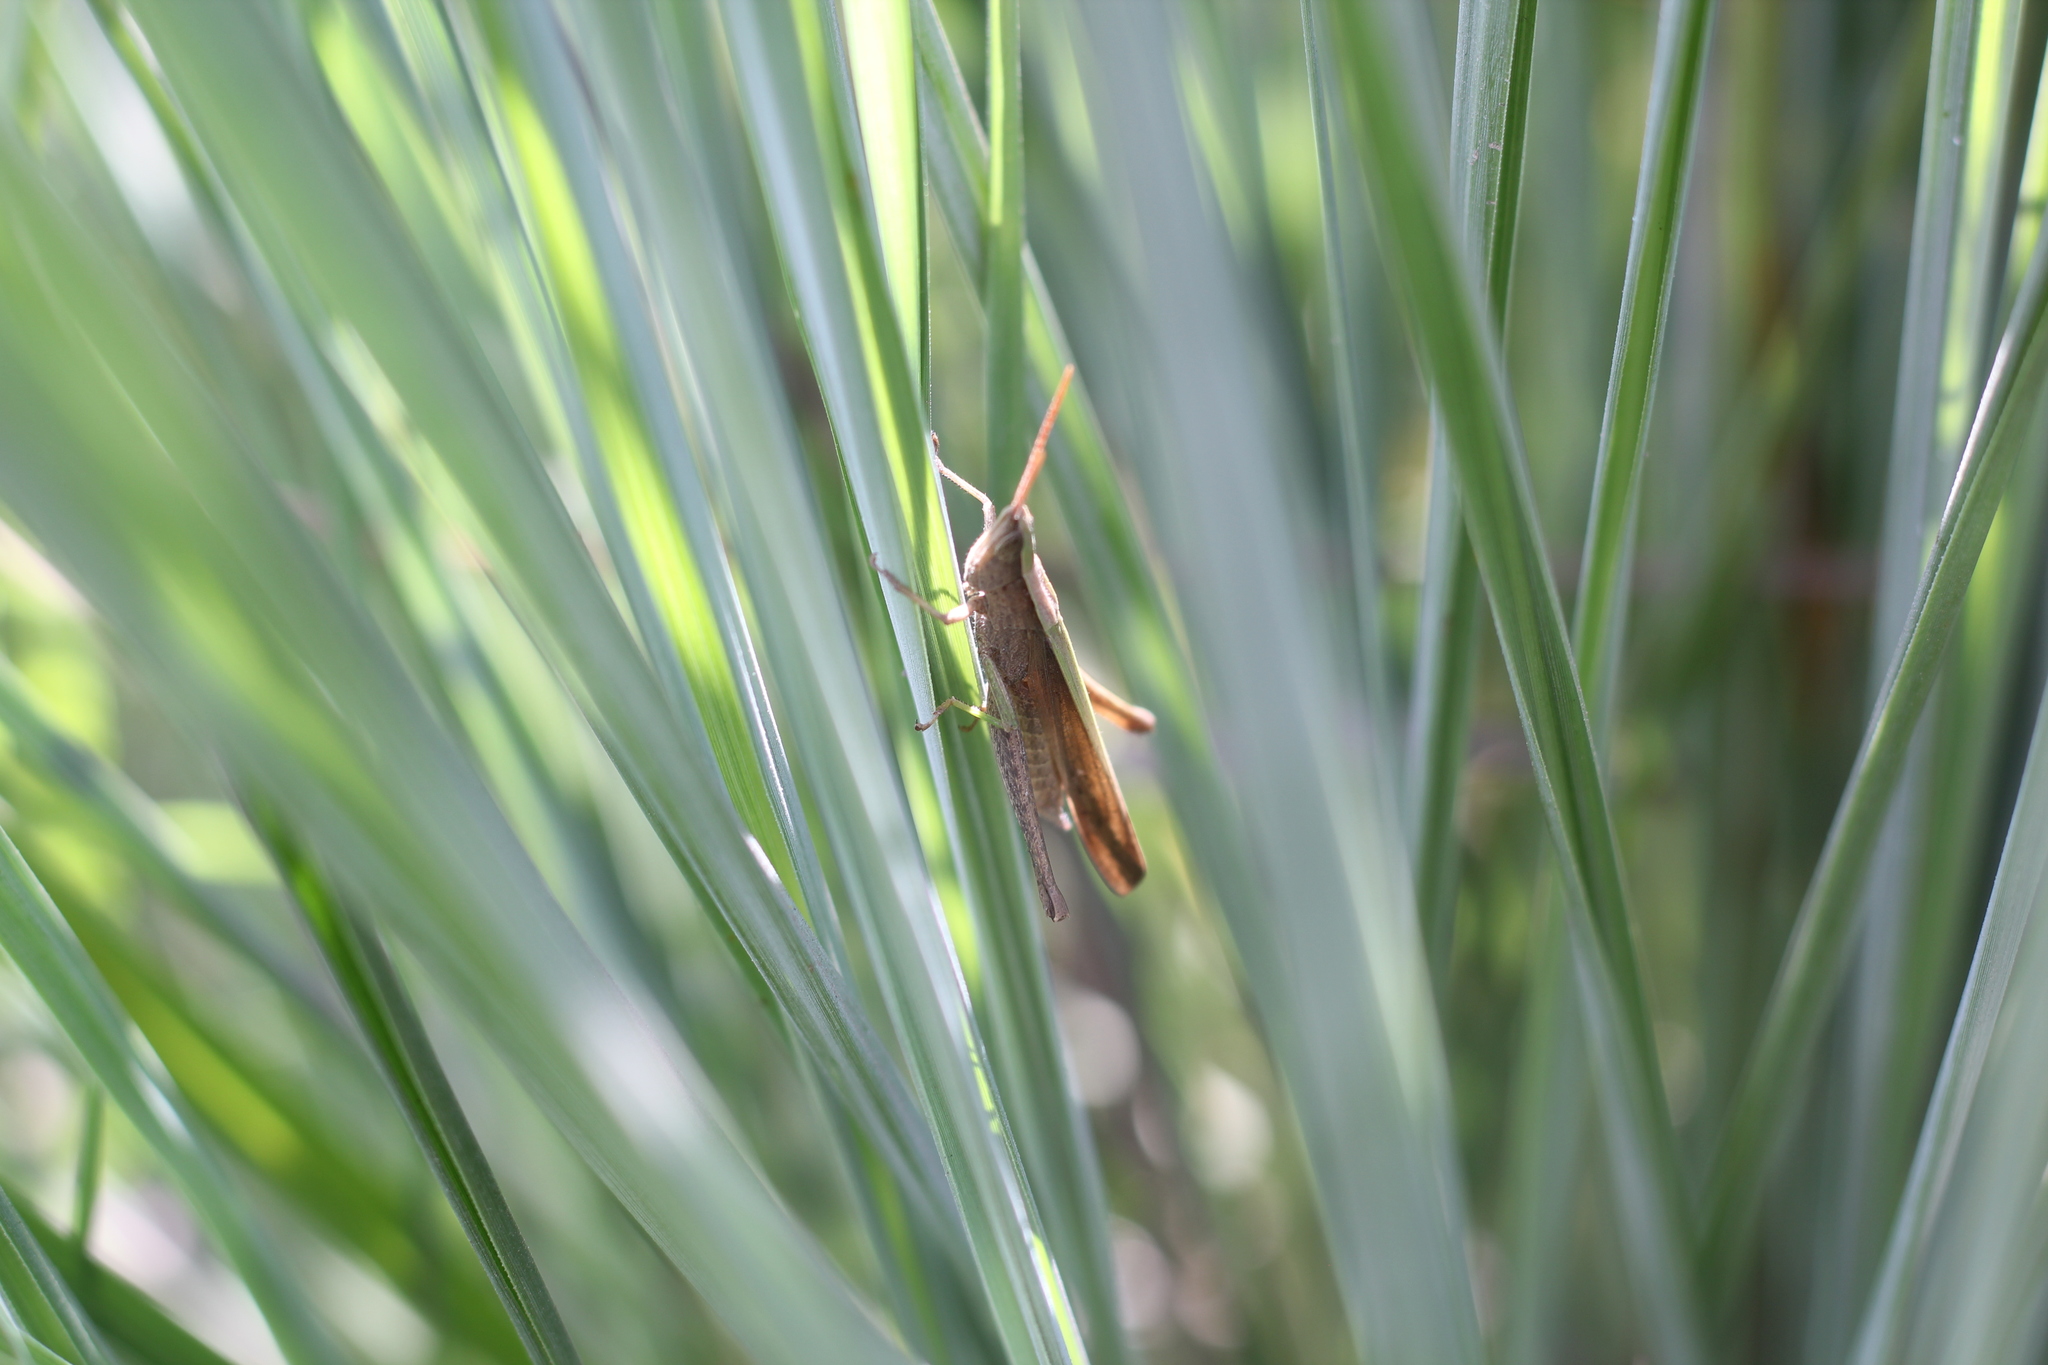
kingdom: Animalia
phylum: Arthropoda
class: Insecta
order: Orthoptera
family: Acrididae
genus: Metaleptea
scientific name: Metaleptea adspersa
